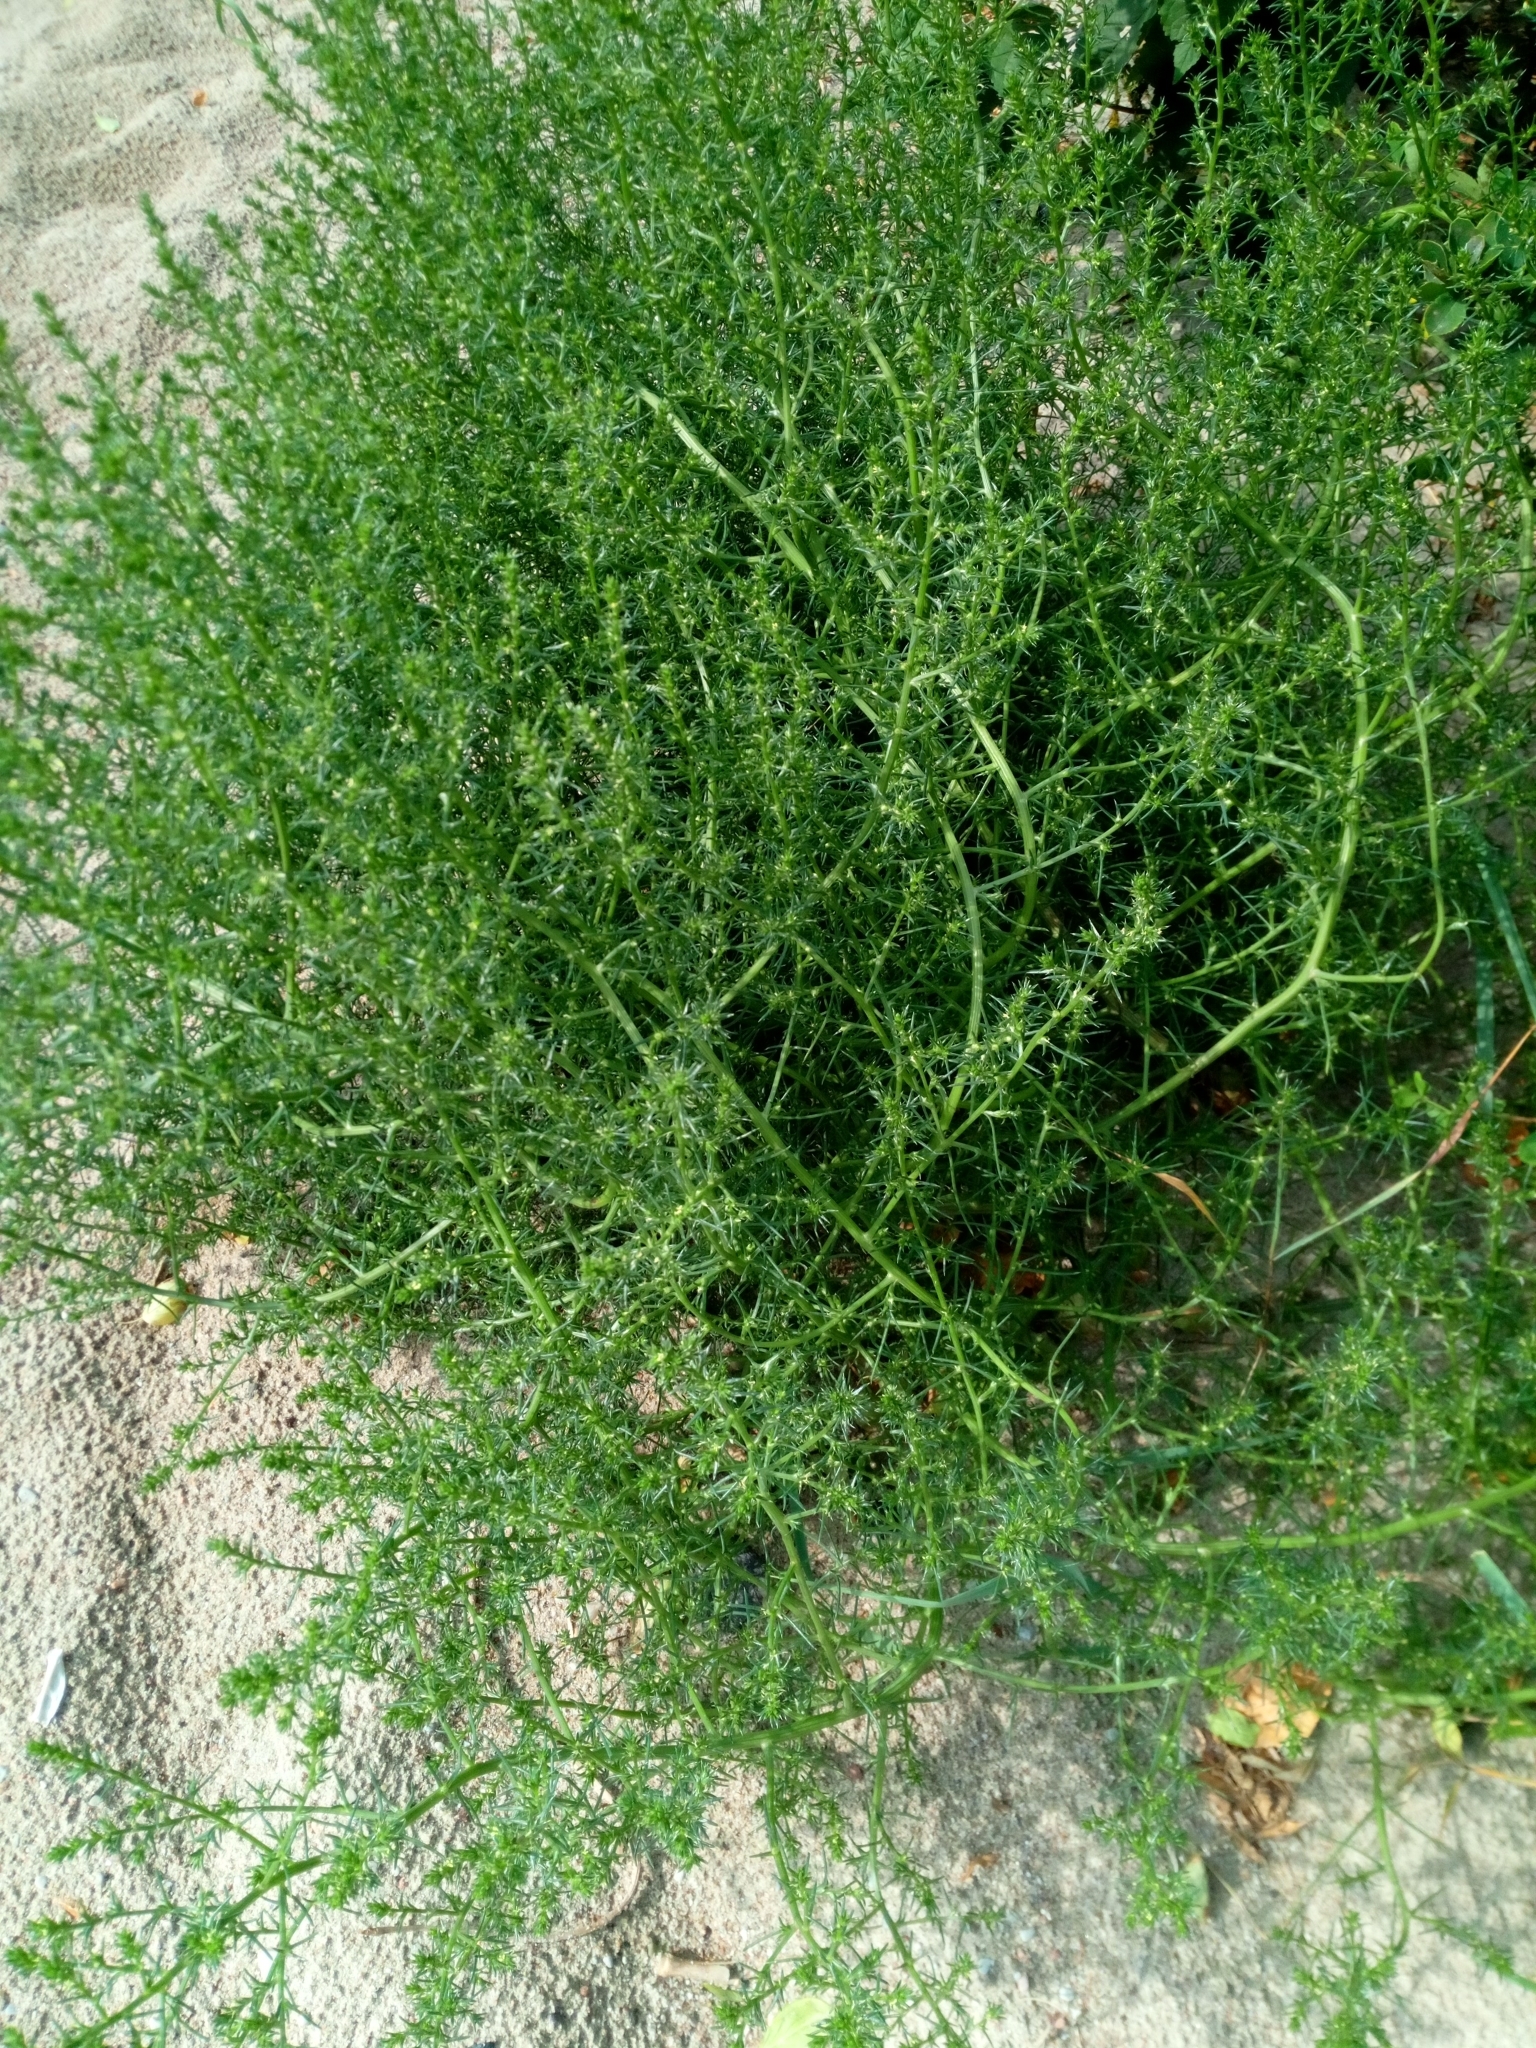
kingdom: Plantae
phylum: Tracheophyta
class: Magnoliopsida
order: Caryophyllales
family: Amaranthaceae
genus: Salsola
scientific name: Salsola kali
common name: Saltwort
